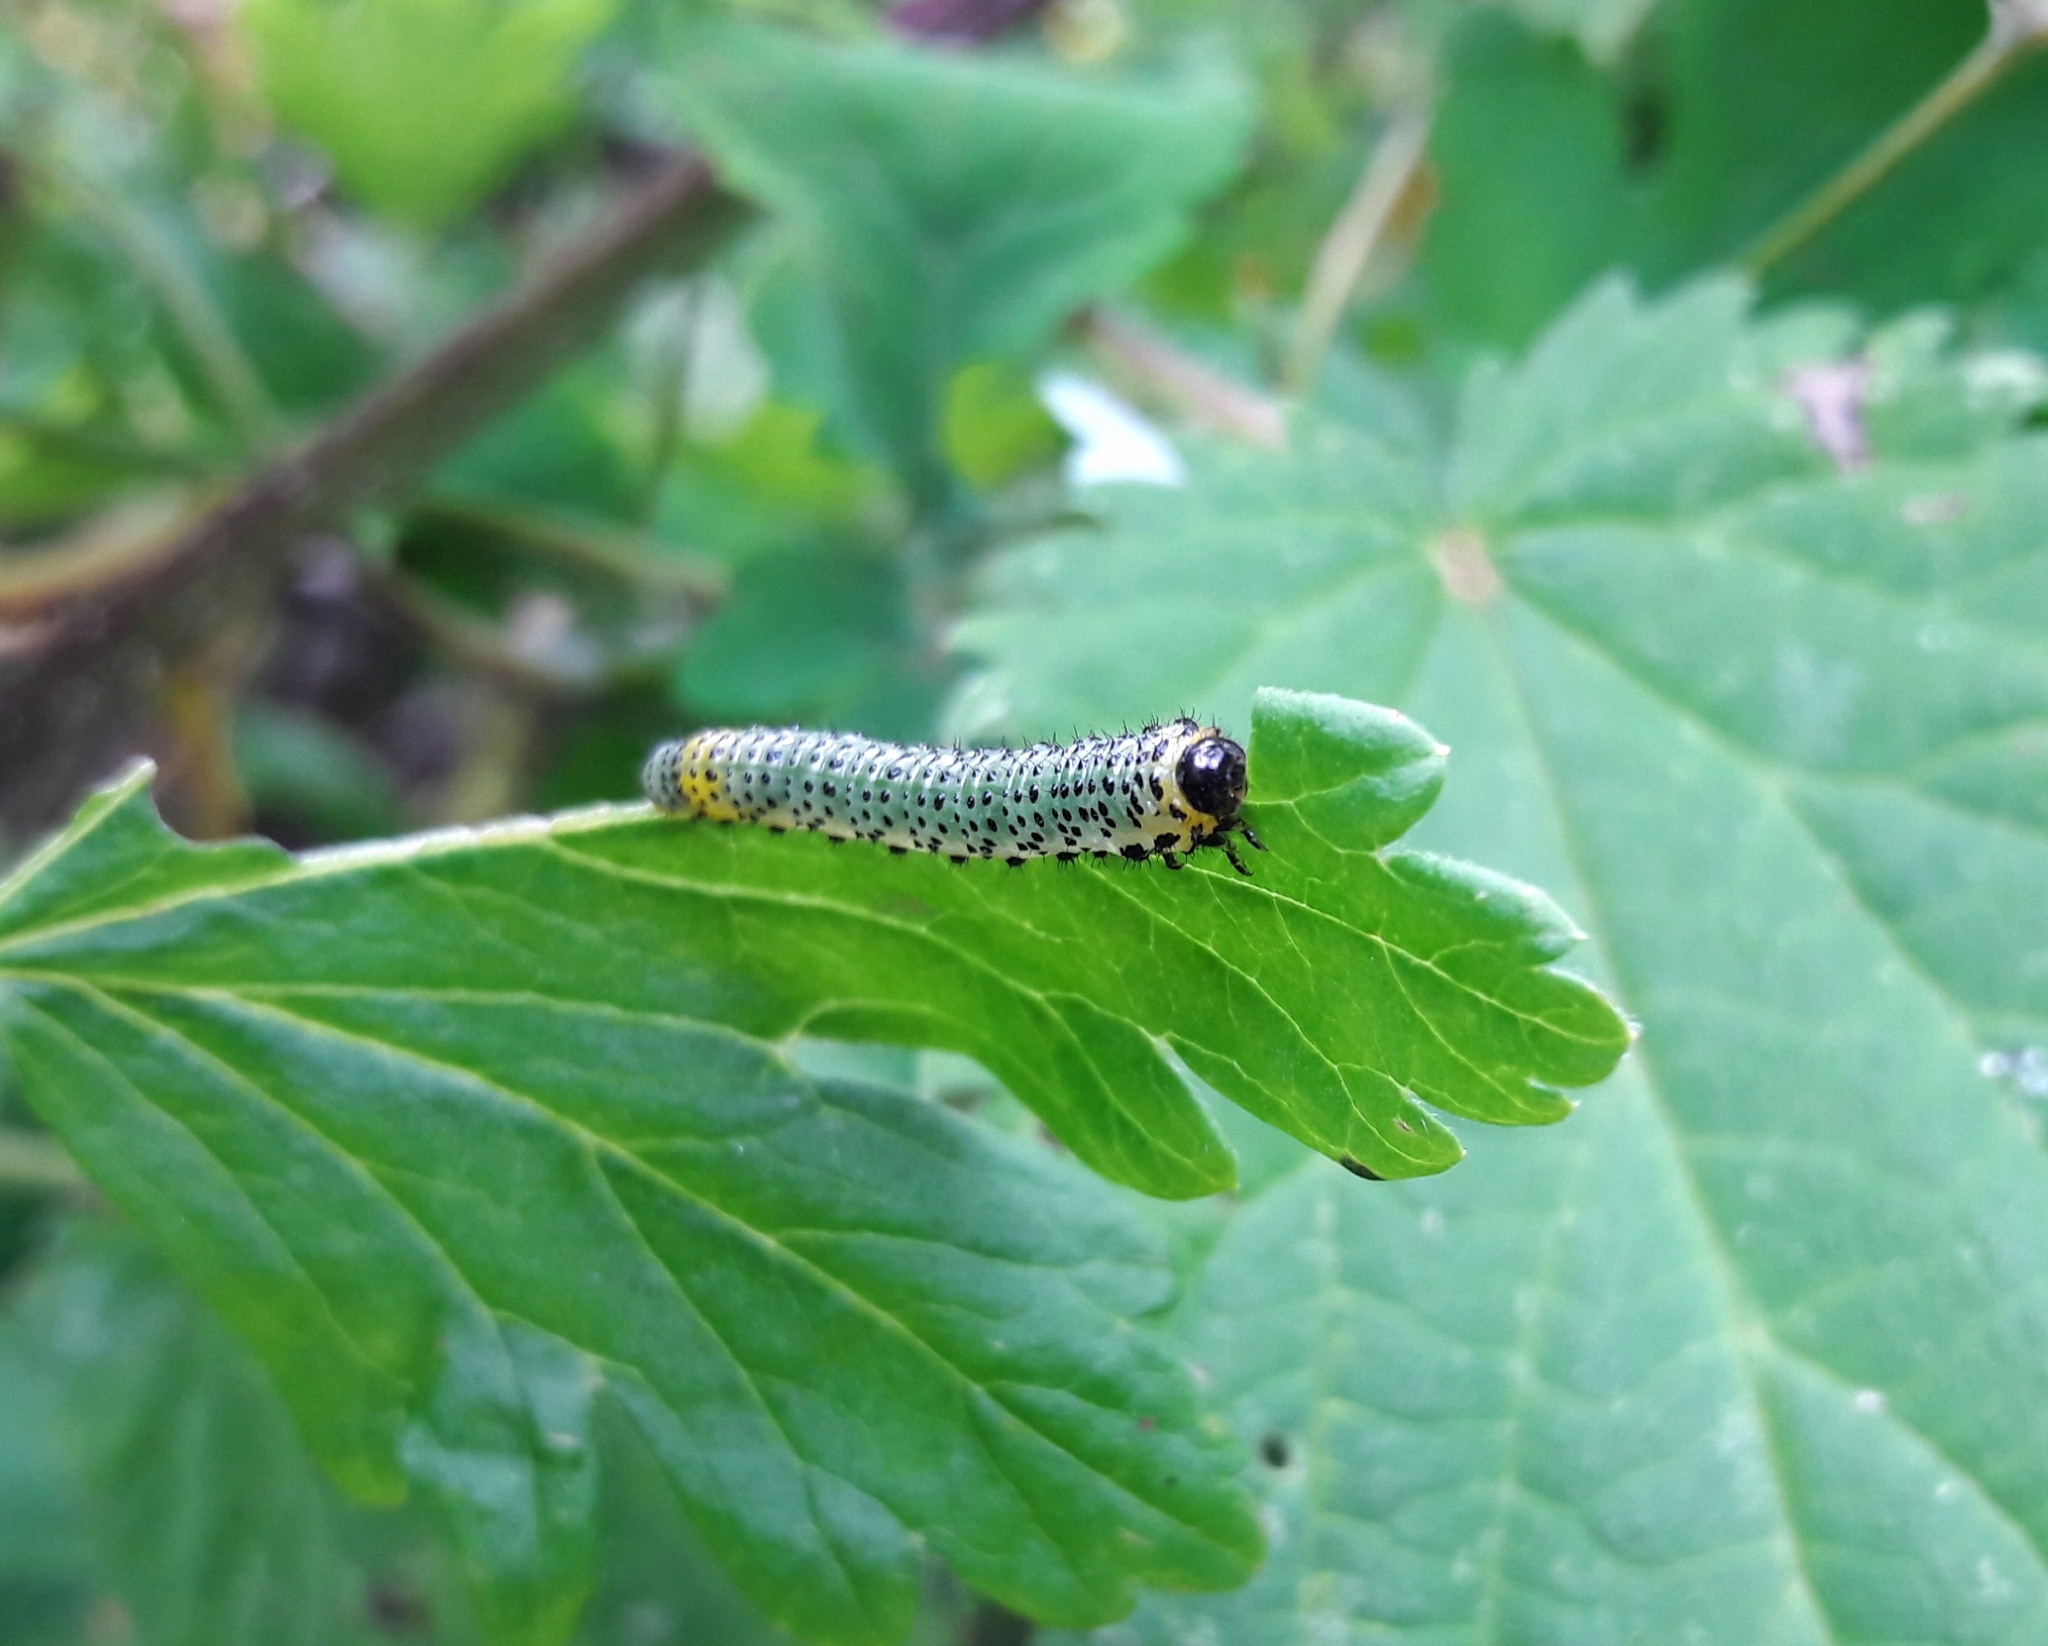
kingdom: Animalia
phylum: Arthropoda
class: Insecta
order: Hymenoptera
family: Tenthredinidae
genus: Nematus
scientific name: Nematus ribesii
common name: Imported currantworm
